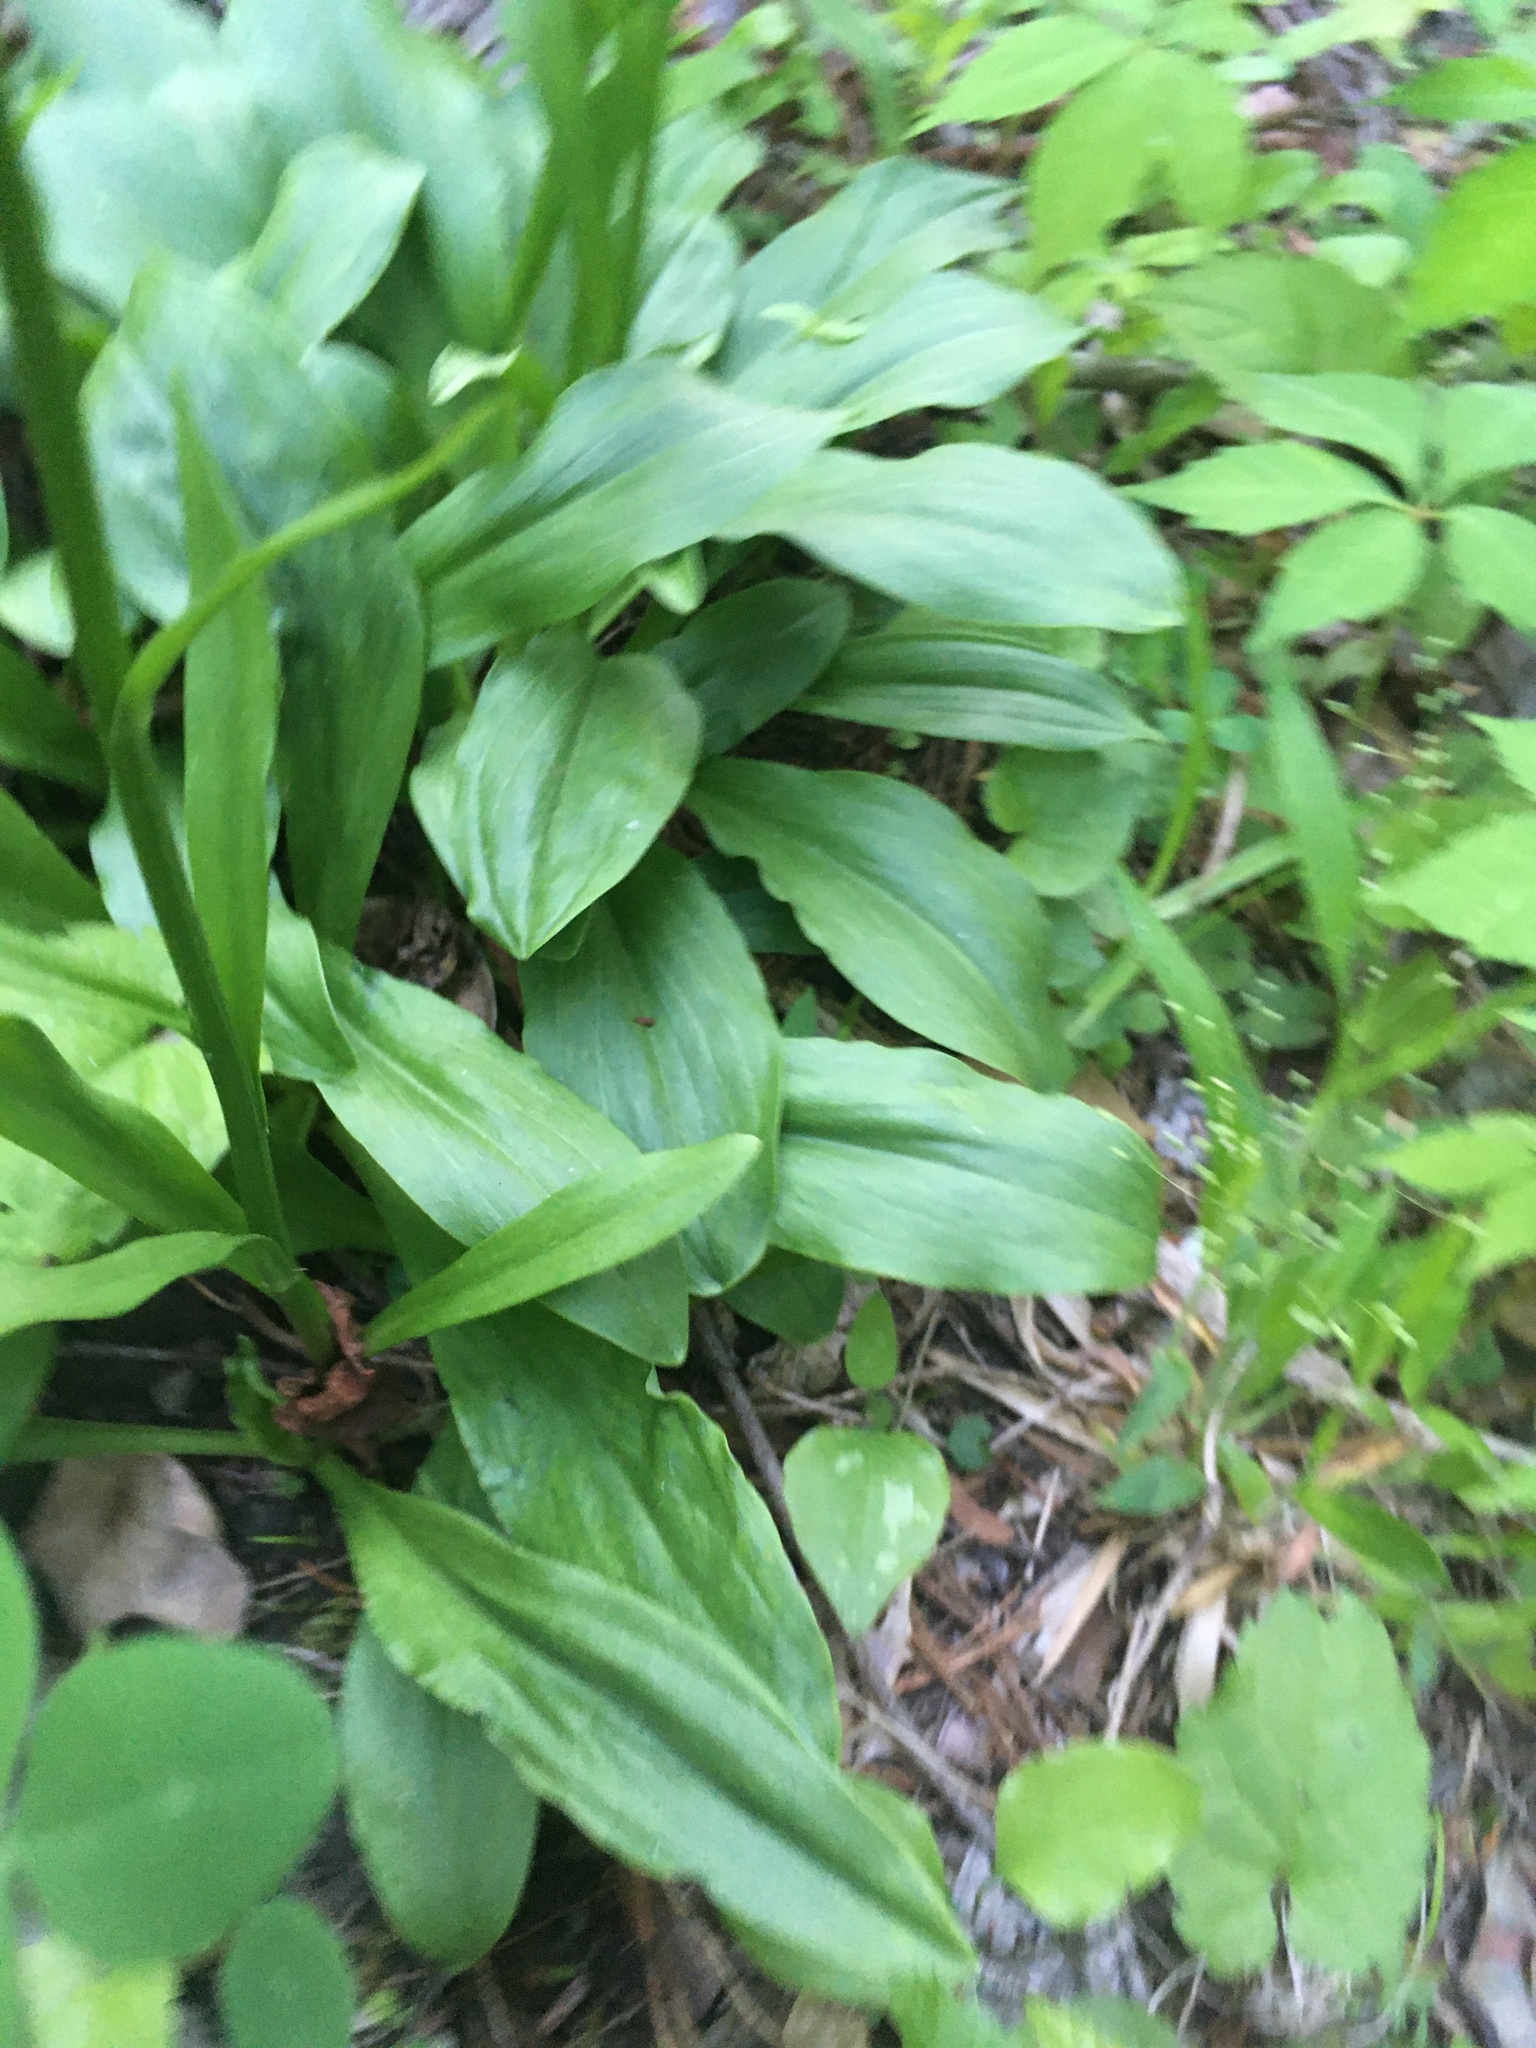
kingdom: Plantae
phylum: Tracheophyta
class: Liliopsida
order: Liliales
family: Melanthiaceae
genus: Chamaelirium
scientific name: Chamaelirium luteum
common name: Fairy-wand
